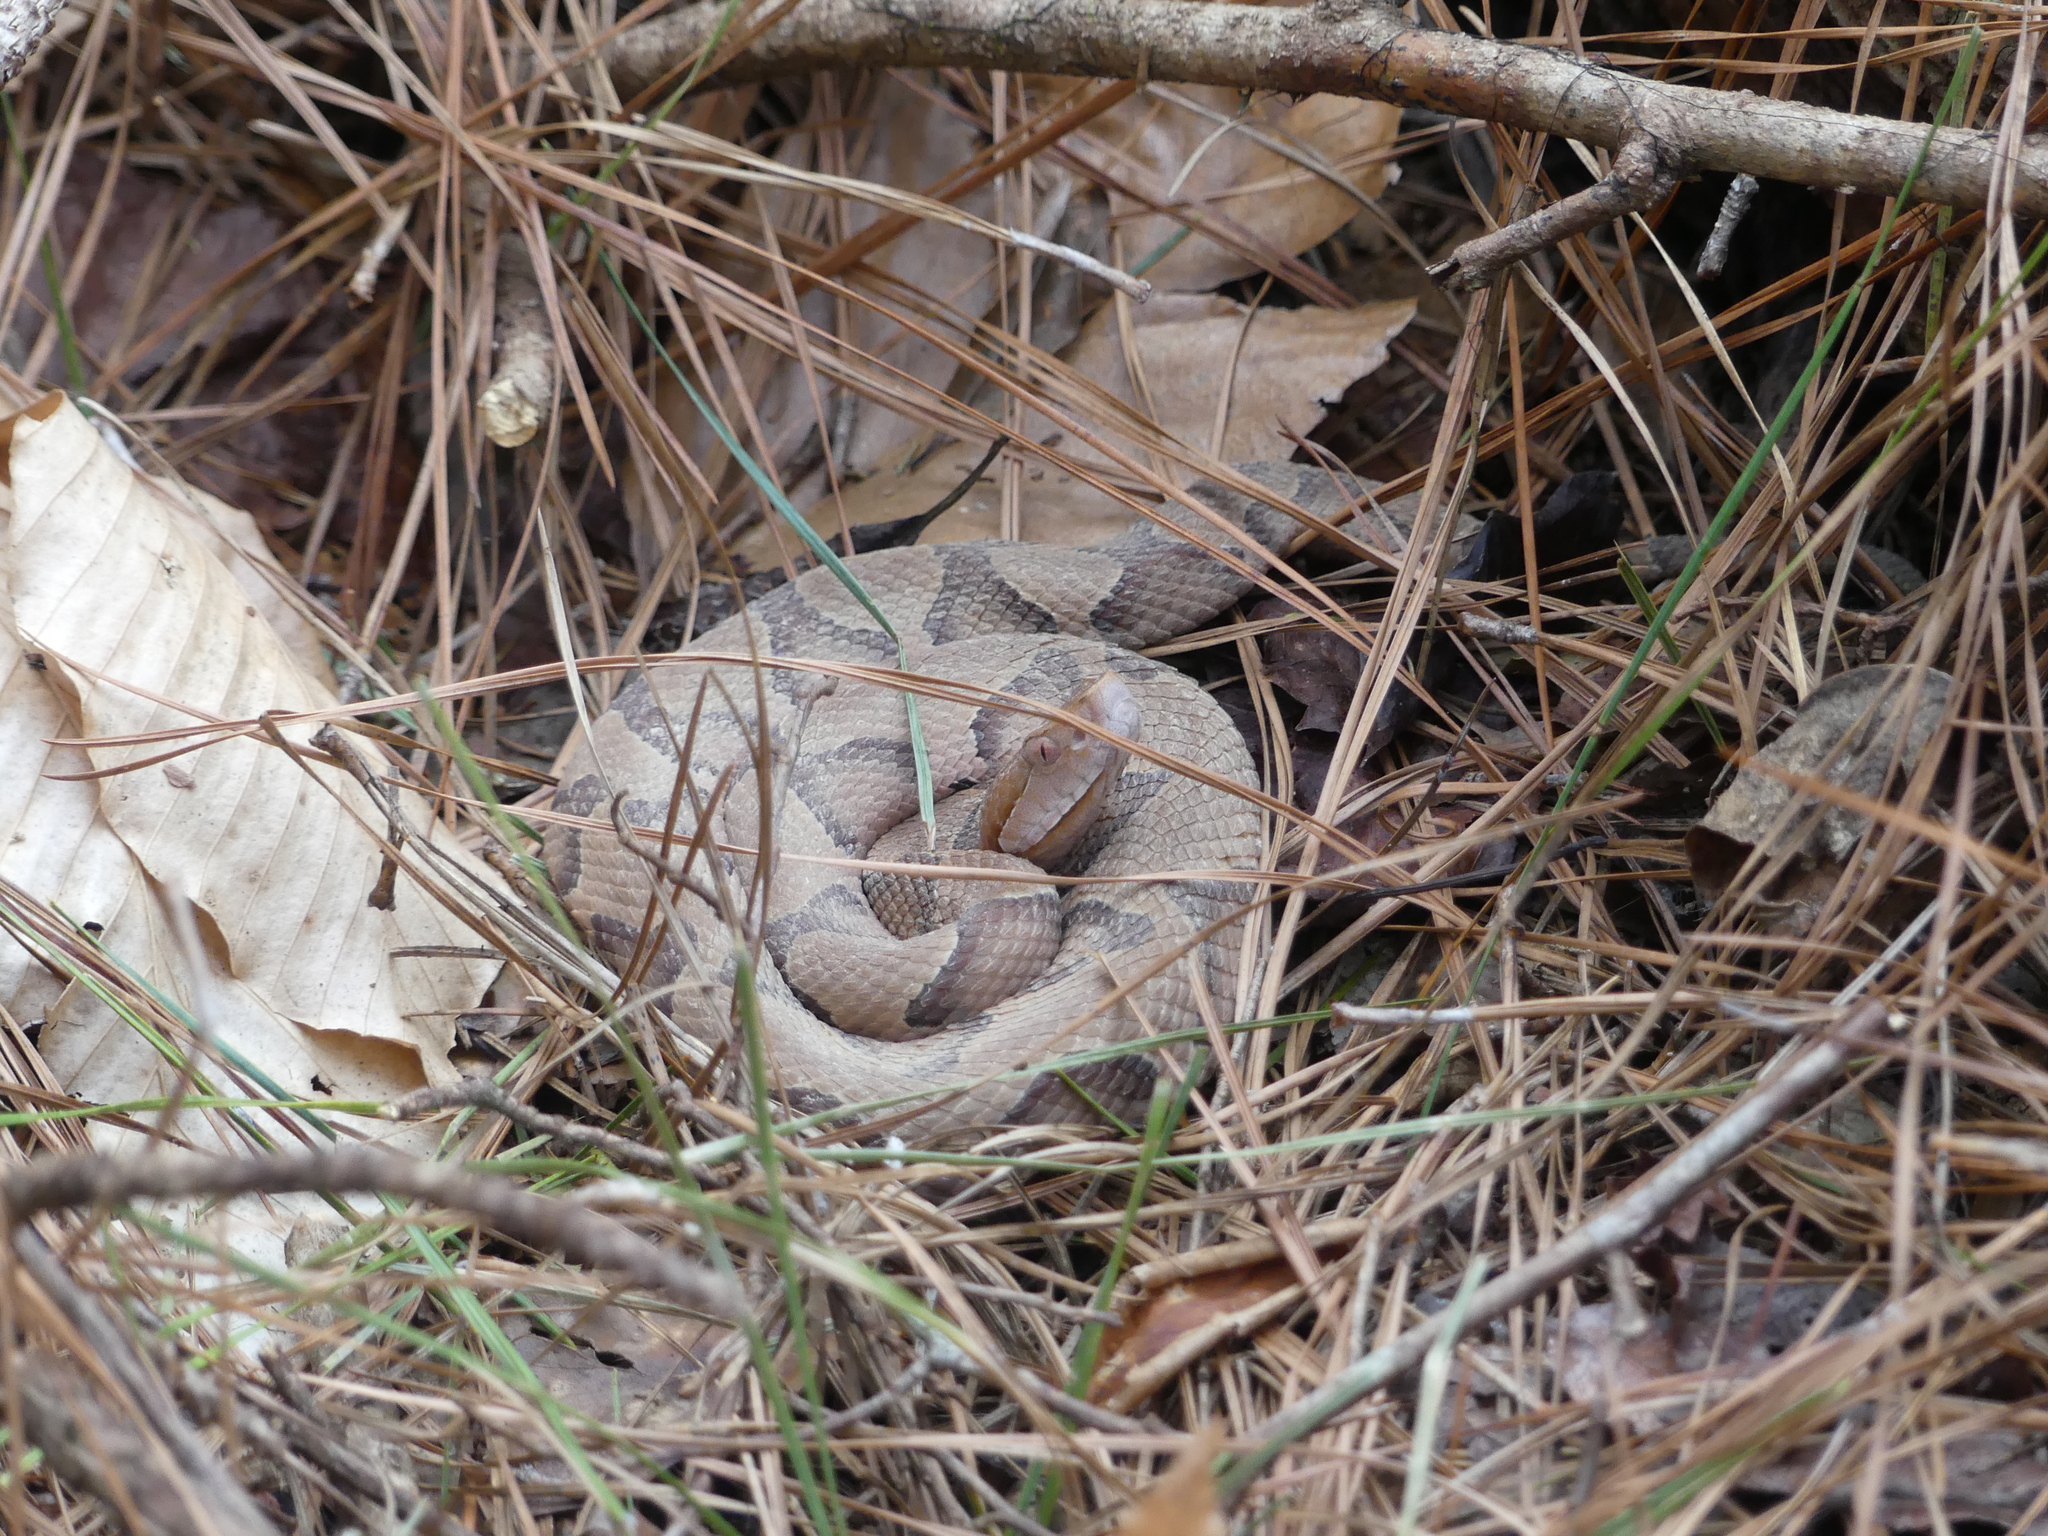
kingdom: Animalia
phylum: Chordata
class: Squamata
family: Viperidae
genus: Agkistrodon
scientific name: Agkistrodon contortrix
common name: Northern copperhead
